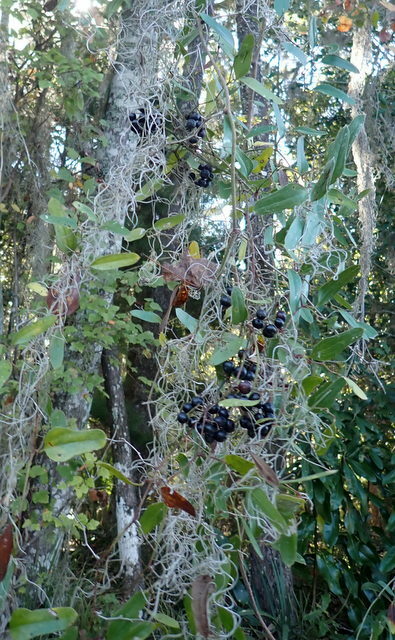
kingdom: Plantae
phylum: Tracheophyta
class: Liliopsida
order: Liliales
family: Smilacaceae
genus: Smilax
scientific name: Smilax auriculata
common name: Wild bamboo
